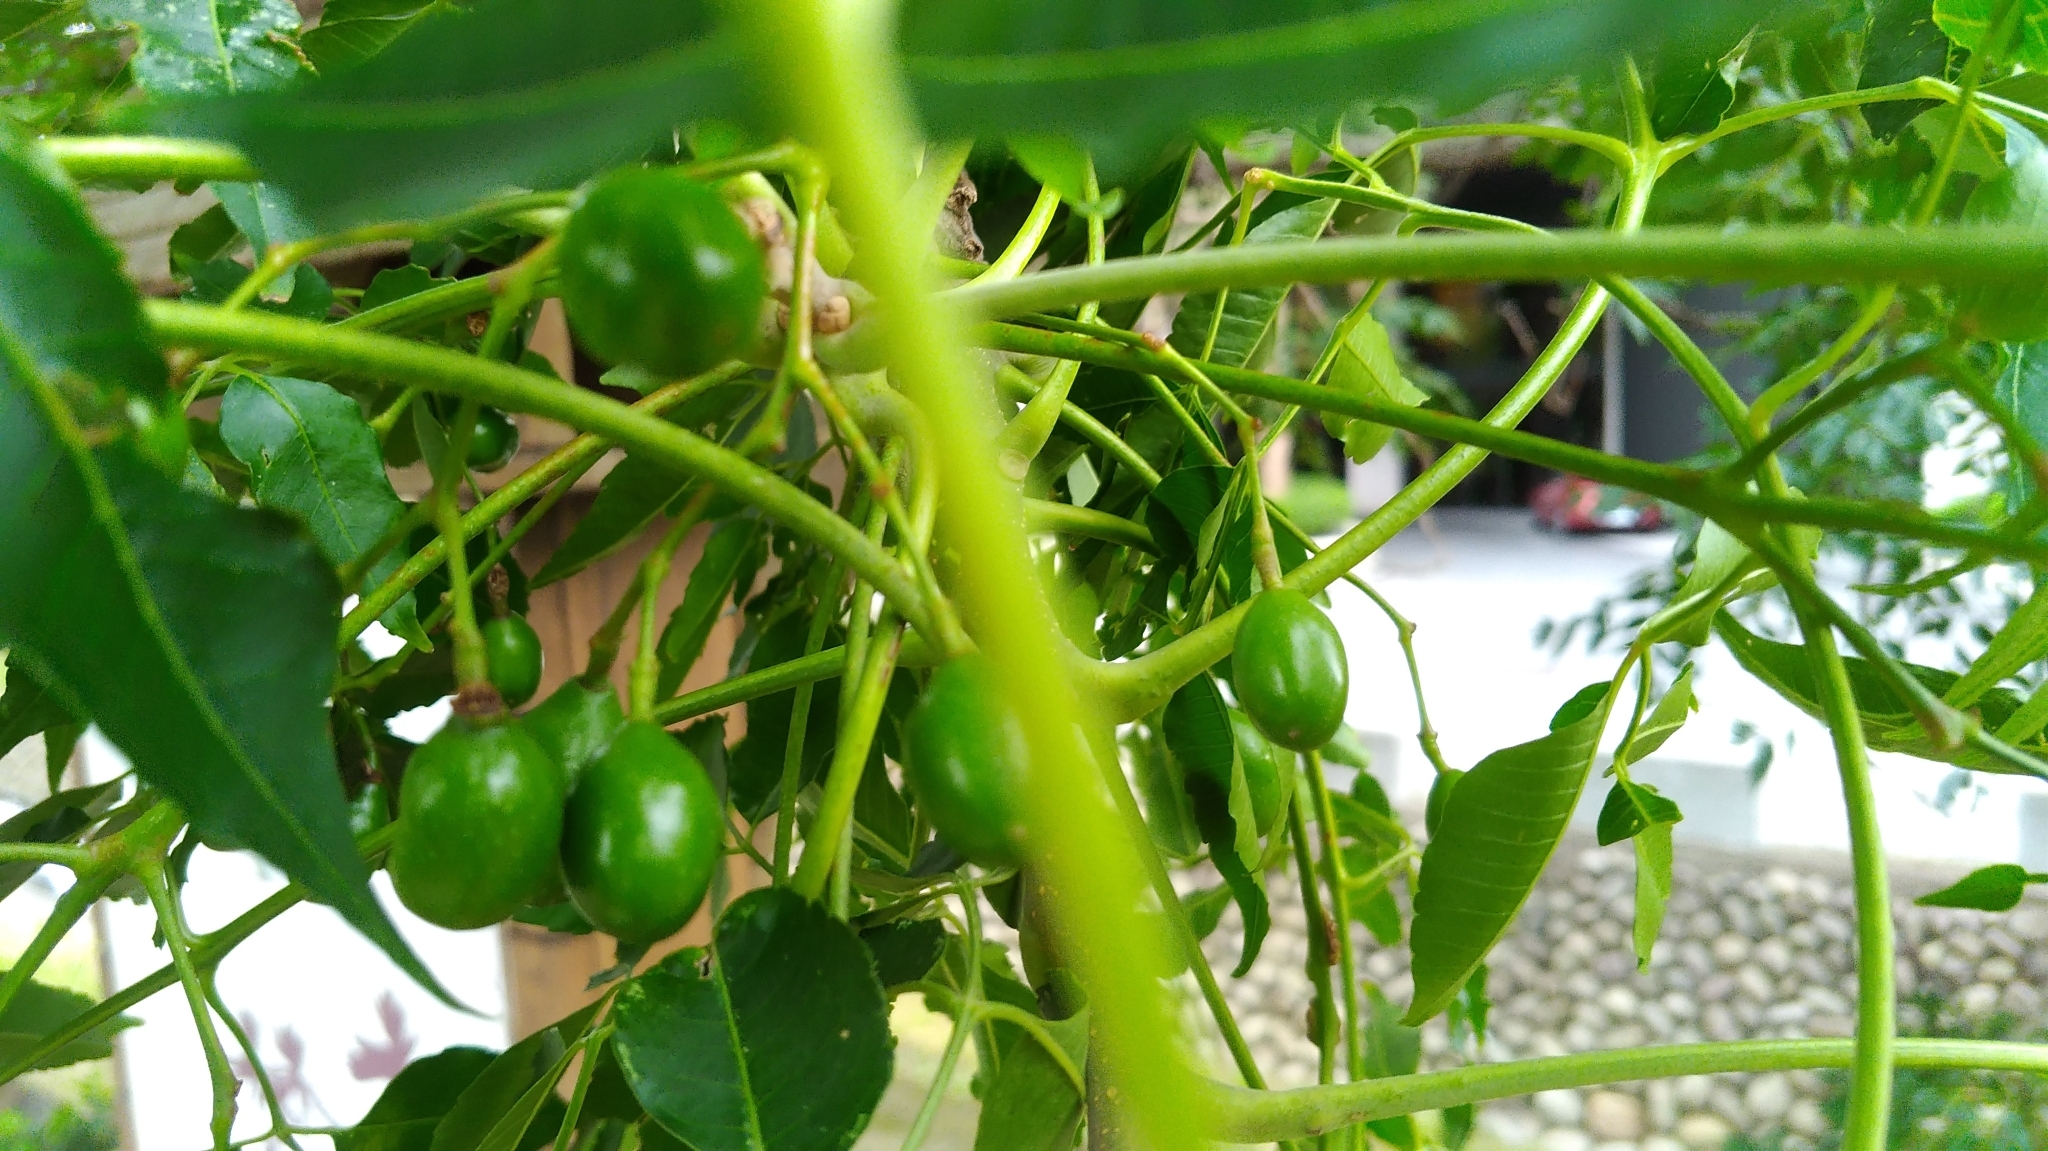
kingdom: Plantae
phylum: Tracheophyta
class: Magnoliopsida
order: Sapindales
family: Meliaceae
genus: Melia
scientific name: Melia azedarach
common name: Chinaberrytree
